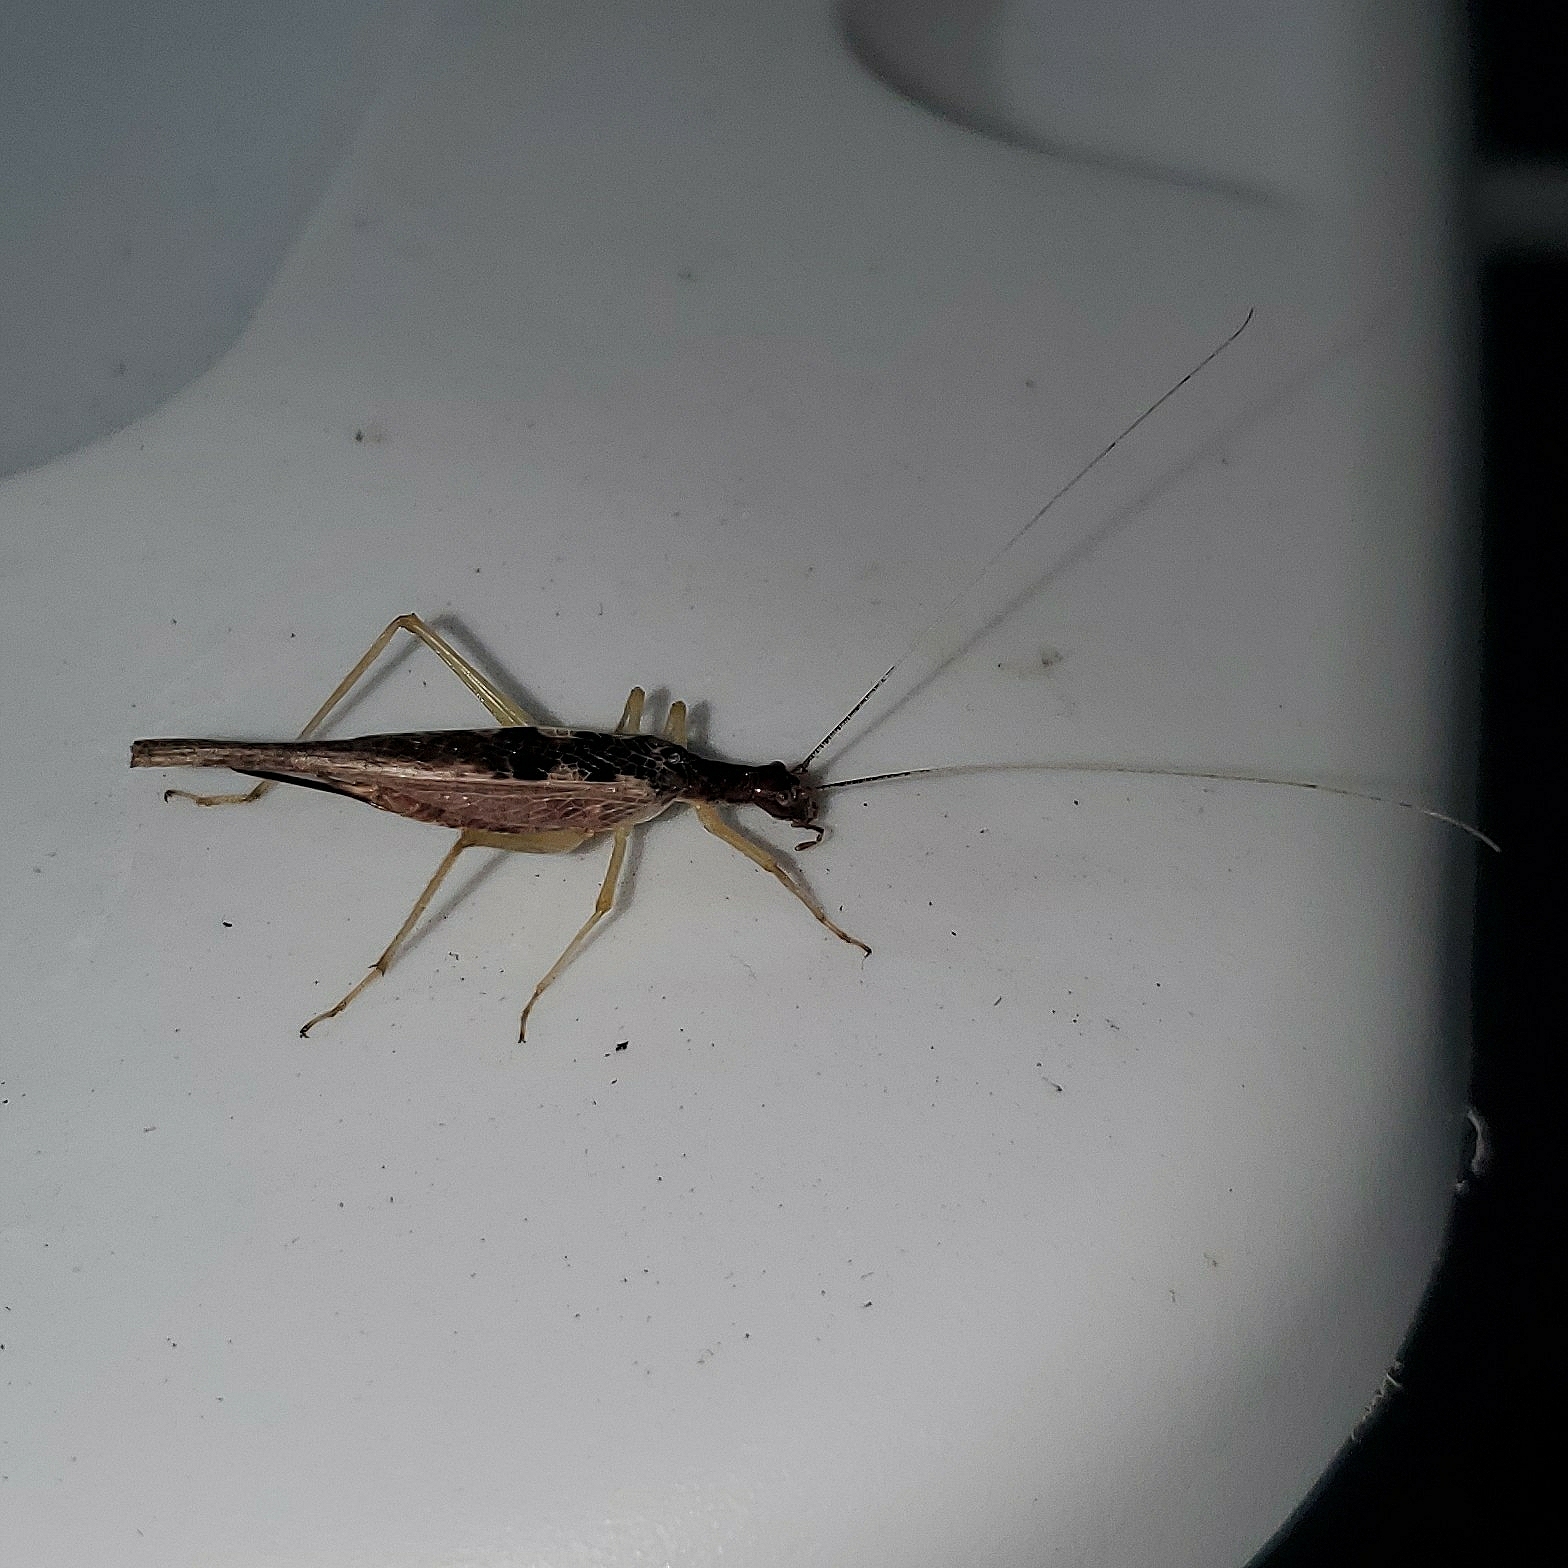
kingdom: Animalia
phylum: Arthropoda
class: Insecta
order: Orthoptera
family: Gryllidae
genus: Neoxabea
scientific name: Neoxabea bipunctata
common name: Two-spotted tree cricket
